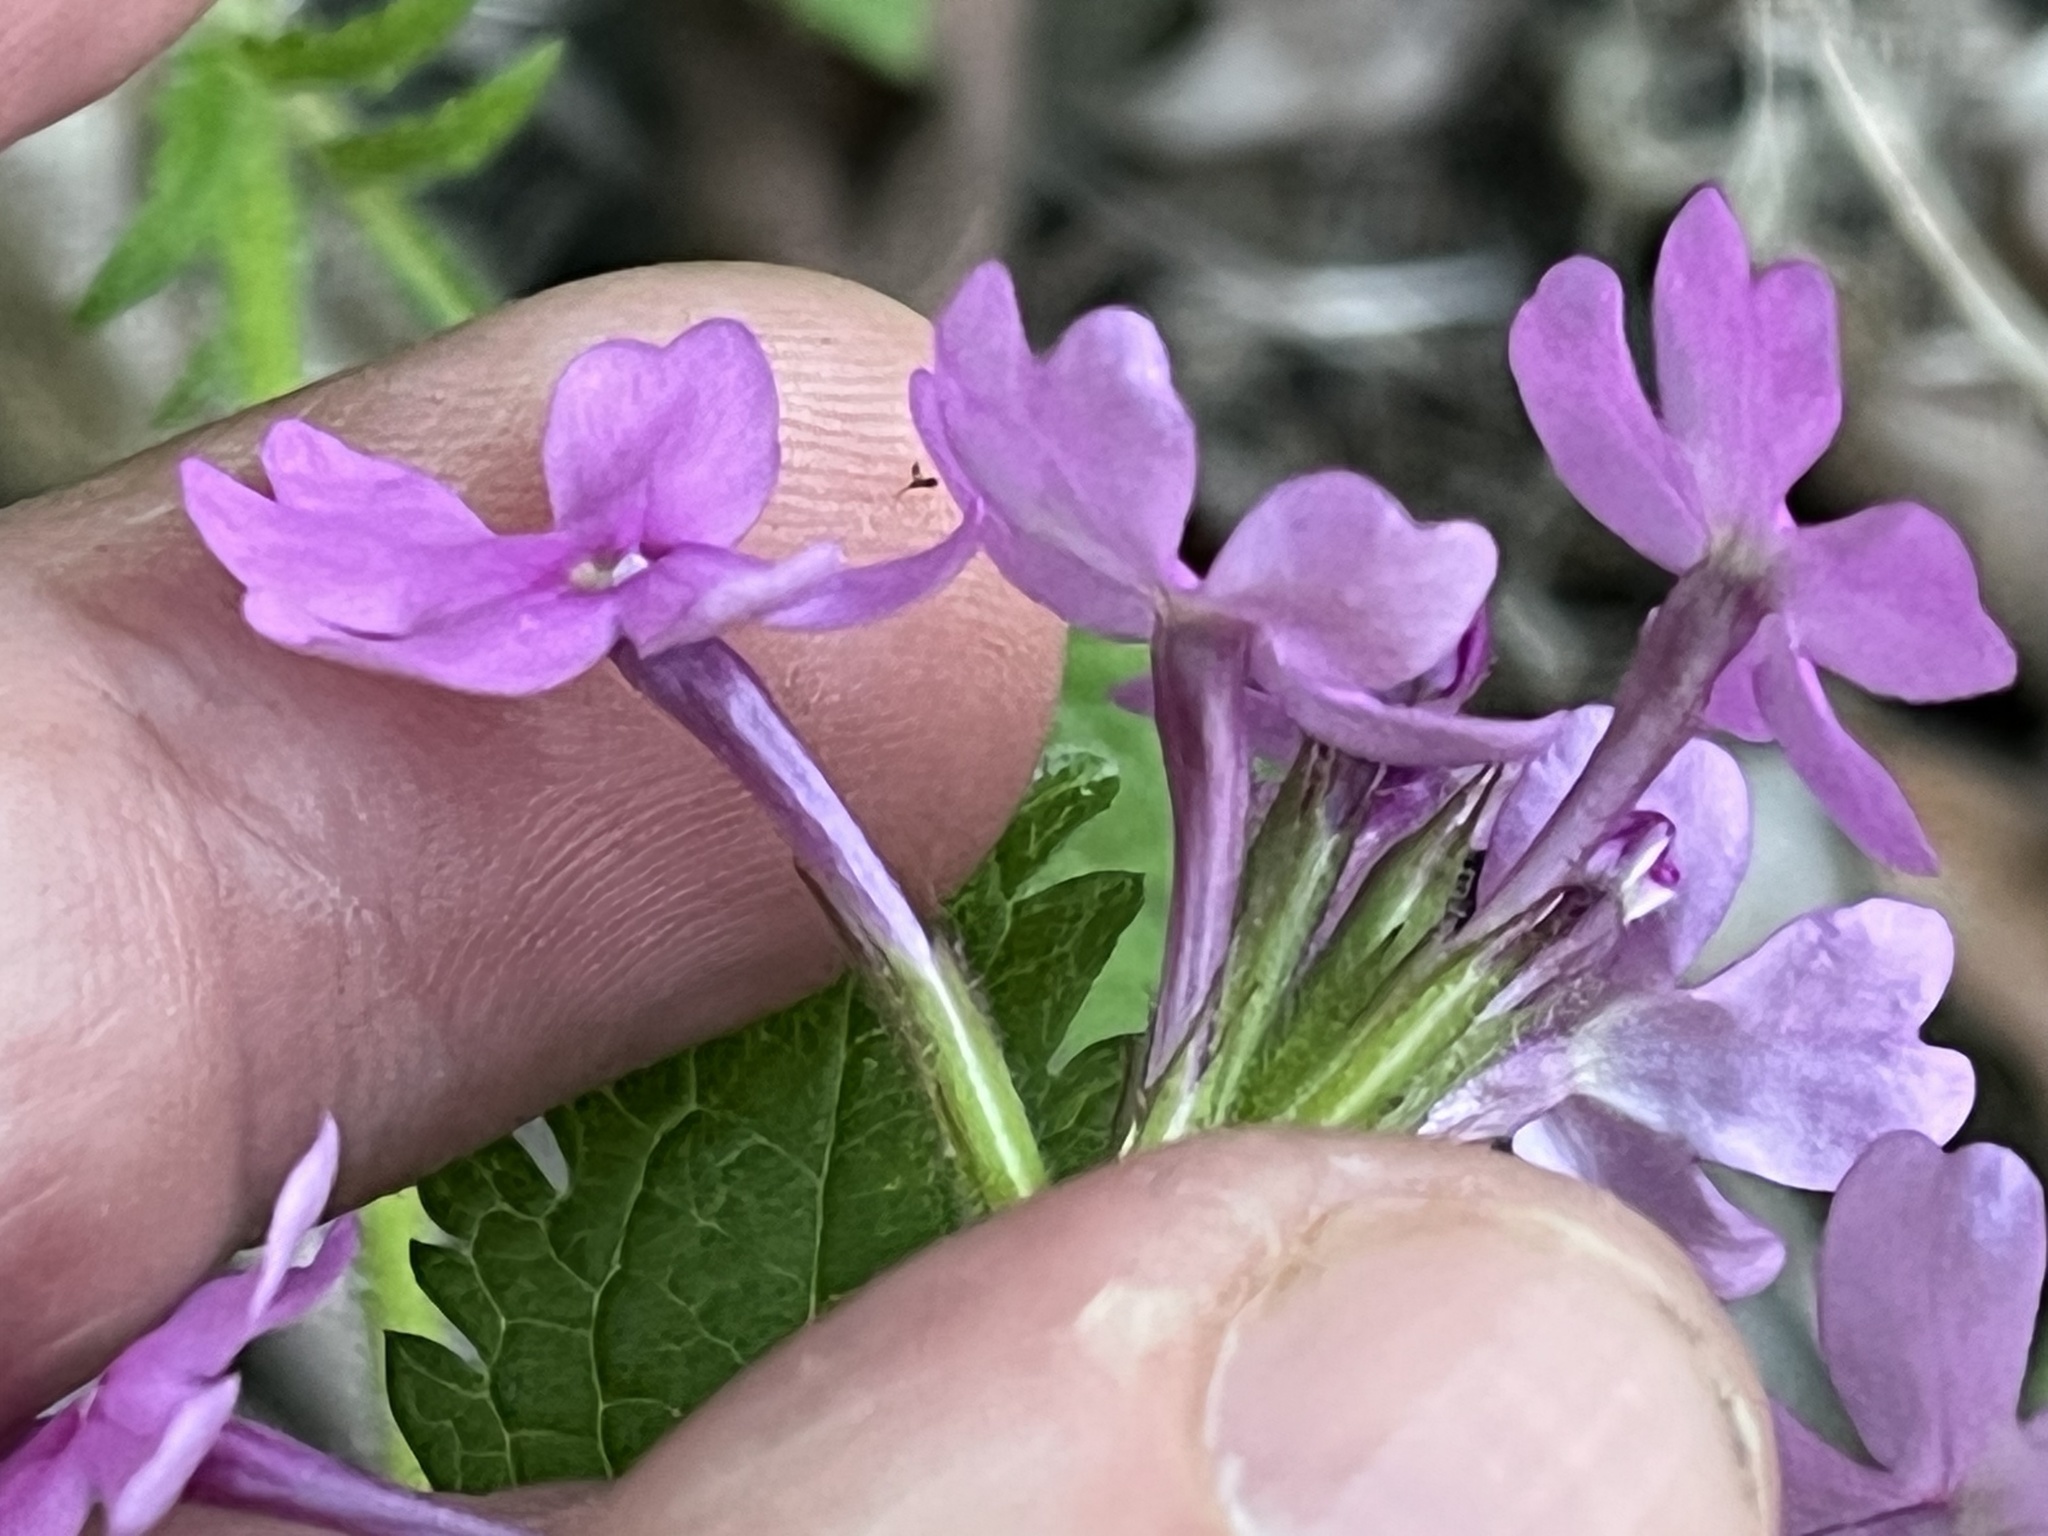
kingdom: Plantae
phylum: Tracheophyta
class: Magnoliopsida
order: Lamiales
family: Verbenaceae
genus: Verbena
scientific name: Verbena canadensis
